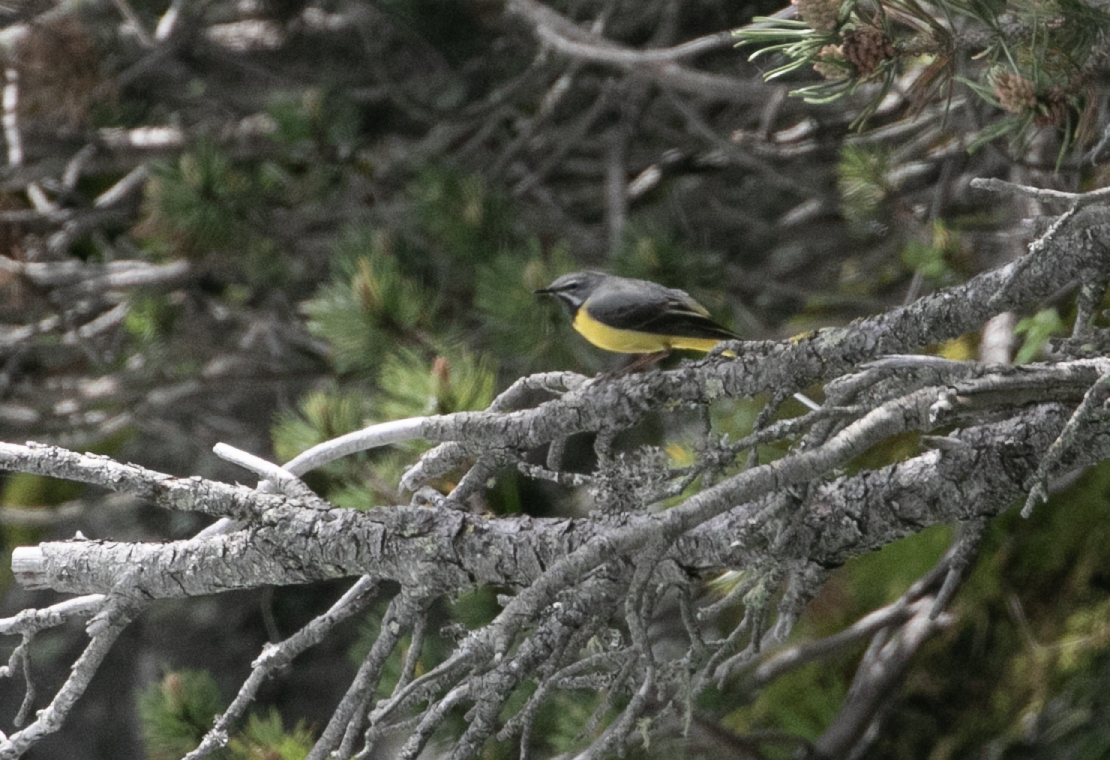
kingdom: Animalia
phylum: Chordata
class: Aves
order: Passeriformes
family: Motacillidae
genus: Motacilla
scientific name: Motacilla cinerea
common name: Grey wagtail
